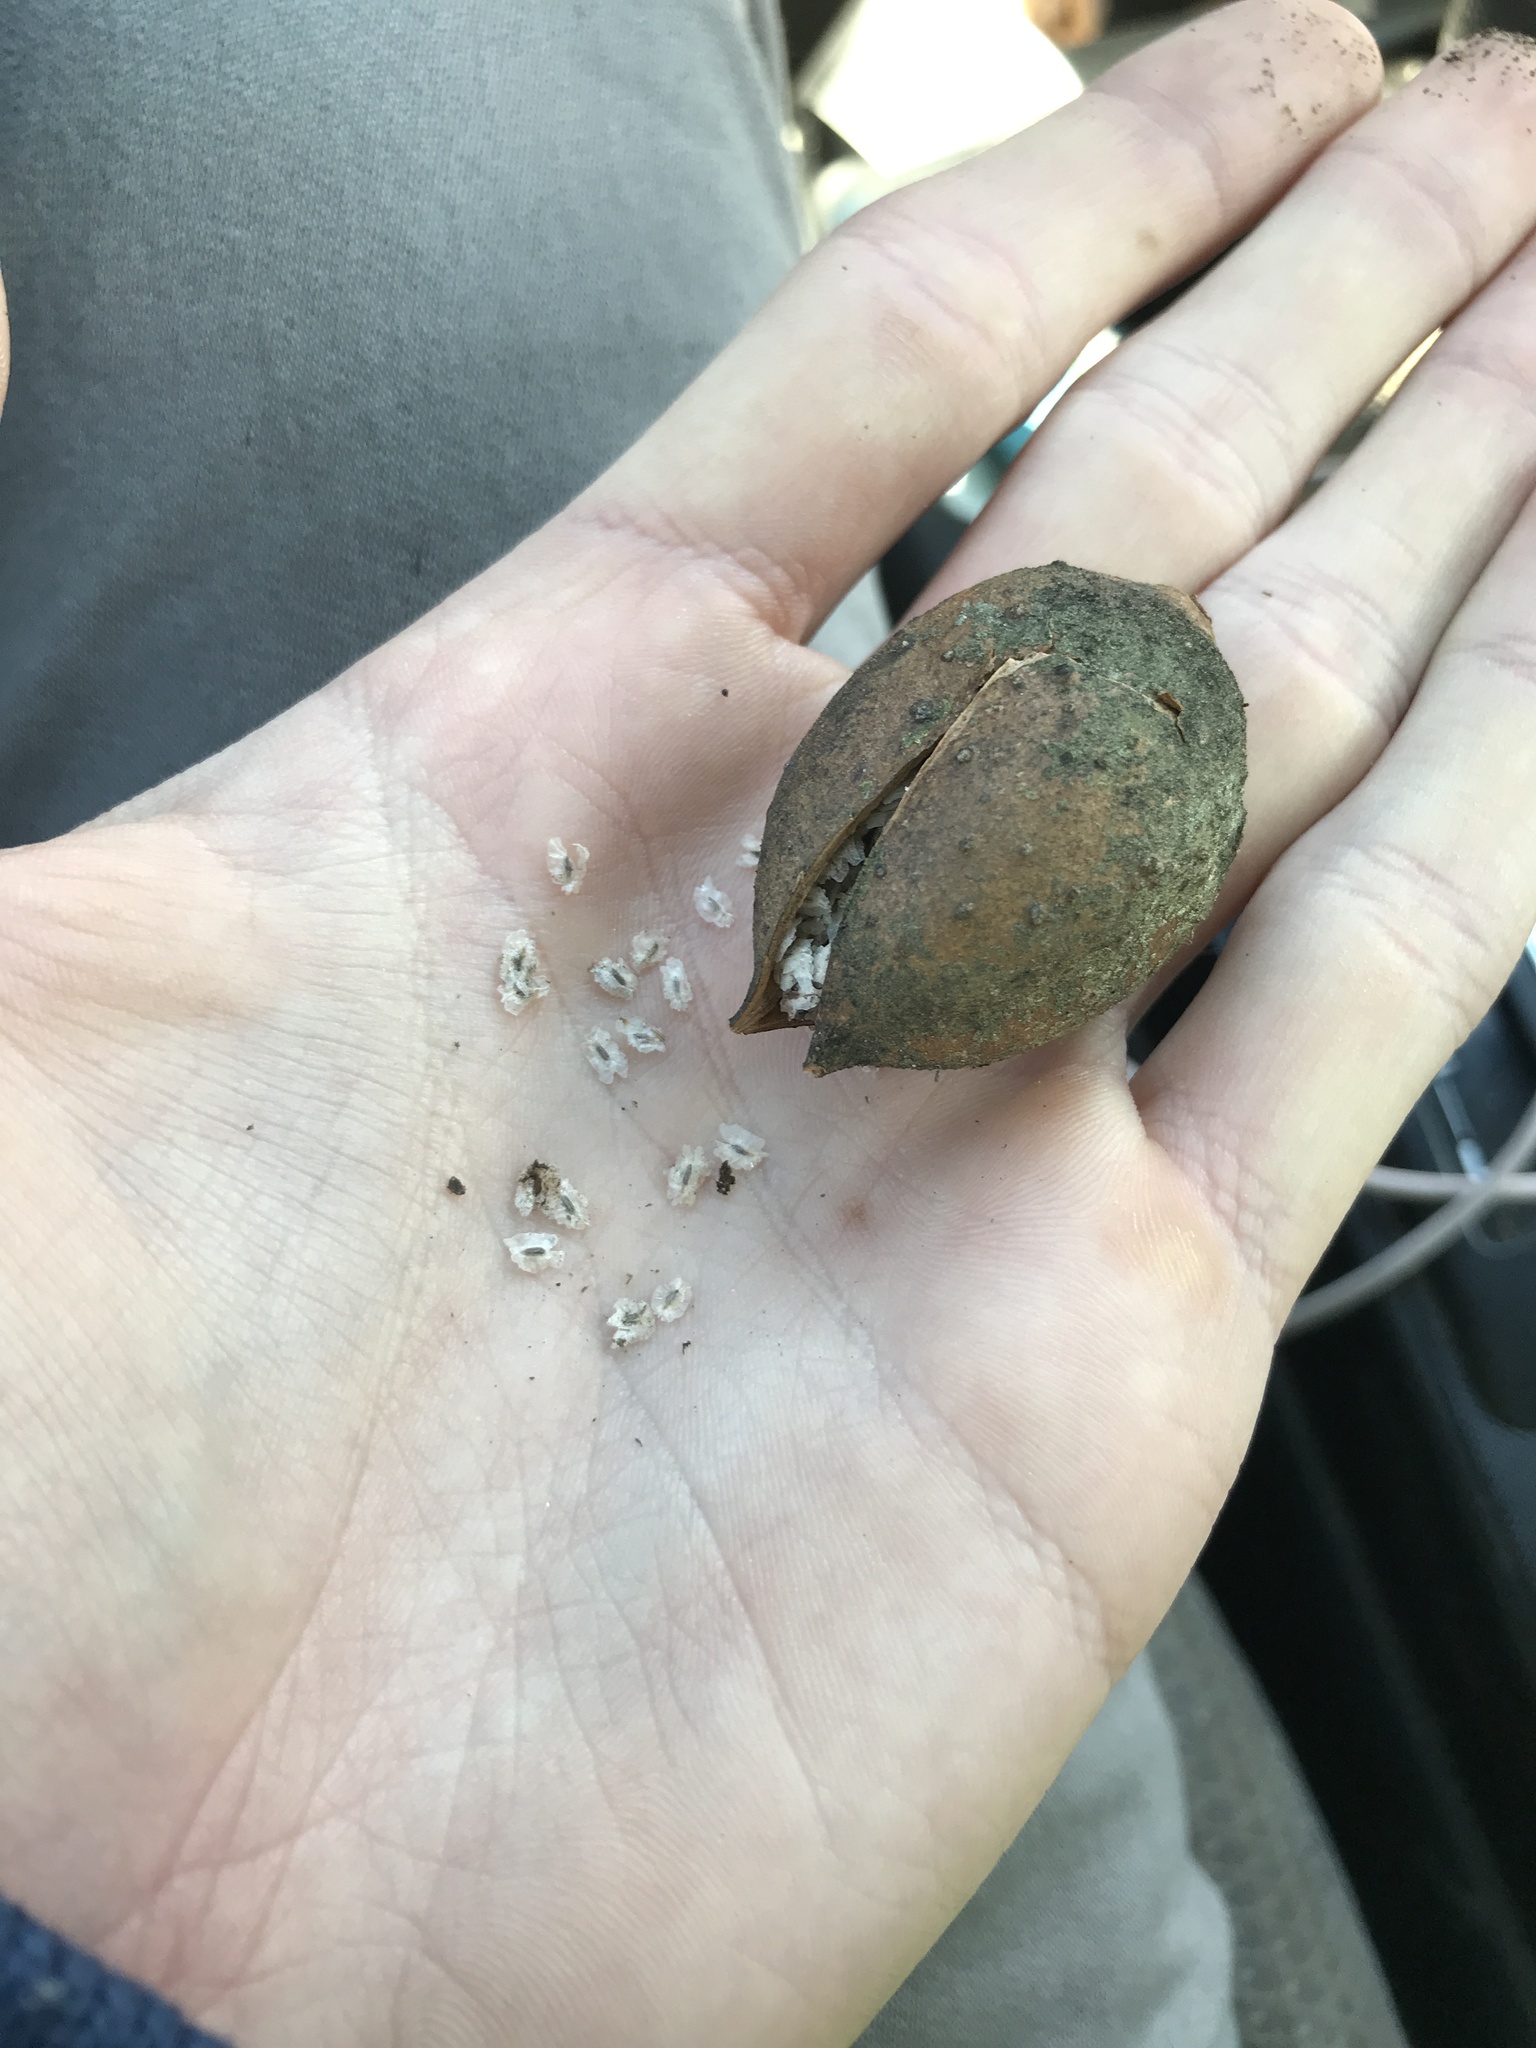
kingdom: Plantae
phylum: Tracheophyta
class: Magnoliopsida
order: Lamiales
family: Paulowniaceae
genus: Paulownia
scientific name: Paulownia tomentosa
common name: Foxglove-tree
